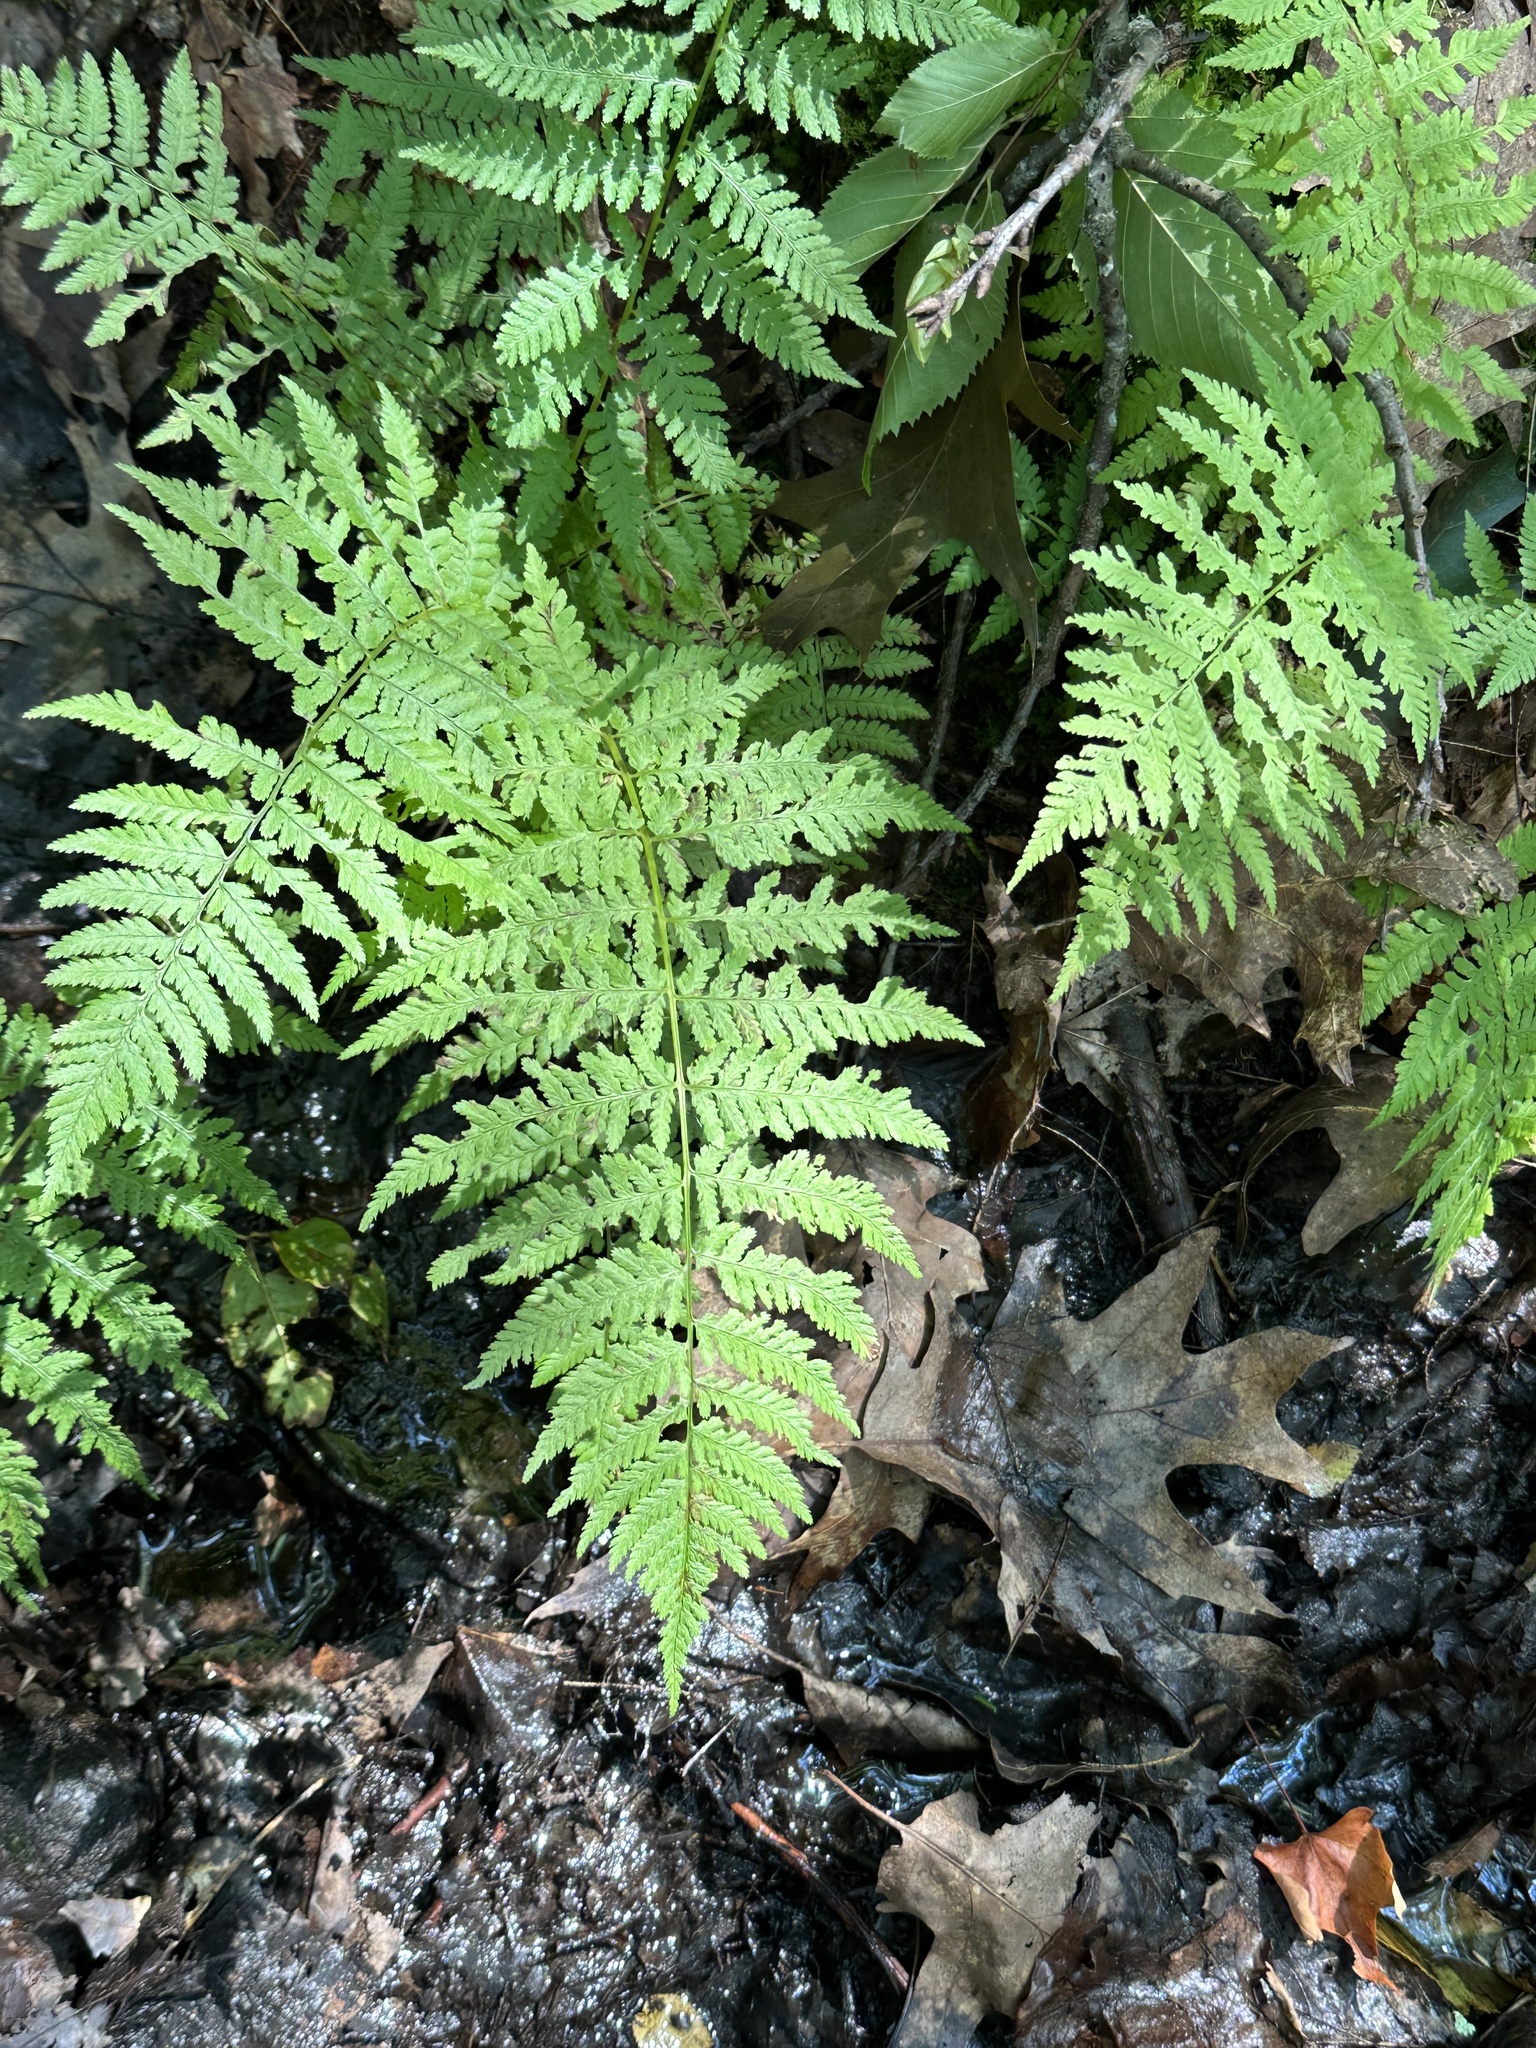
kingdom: Plantae
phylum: Tracheophyta
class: Polypodiopsida
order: Polypodiales
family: Athyriaceae
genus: Athyrium
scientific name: Athyrium angustum
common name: Northern lady fern
